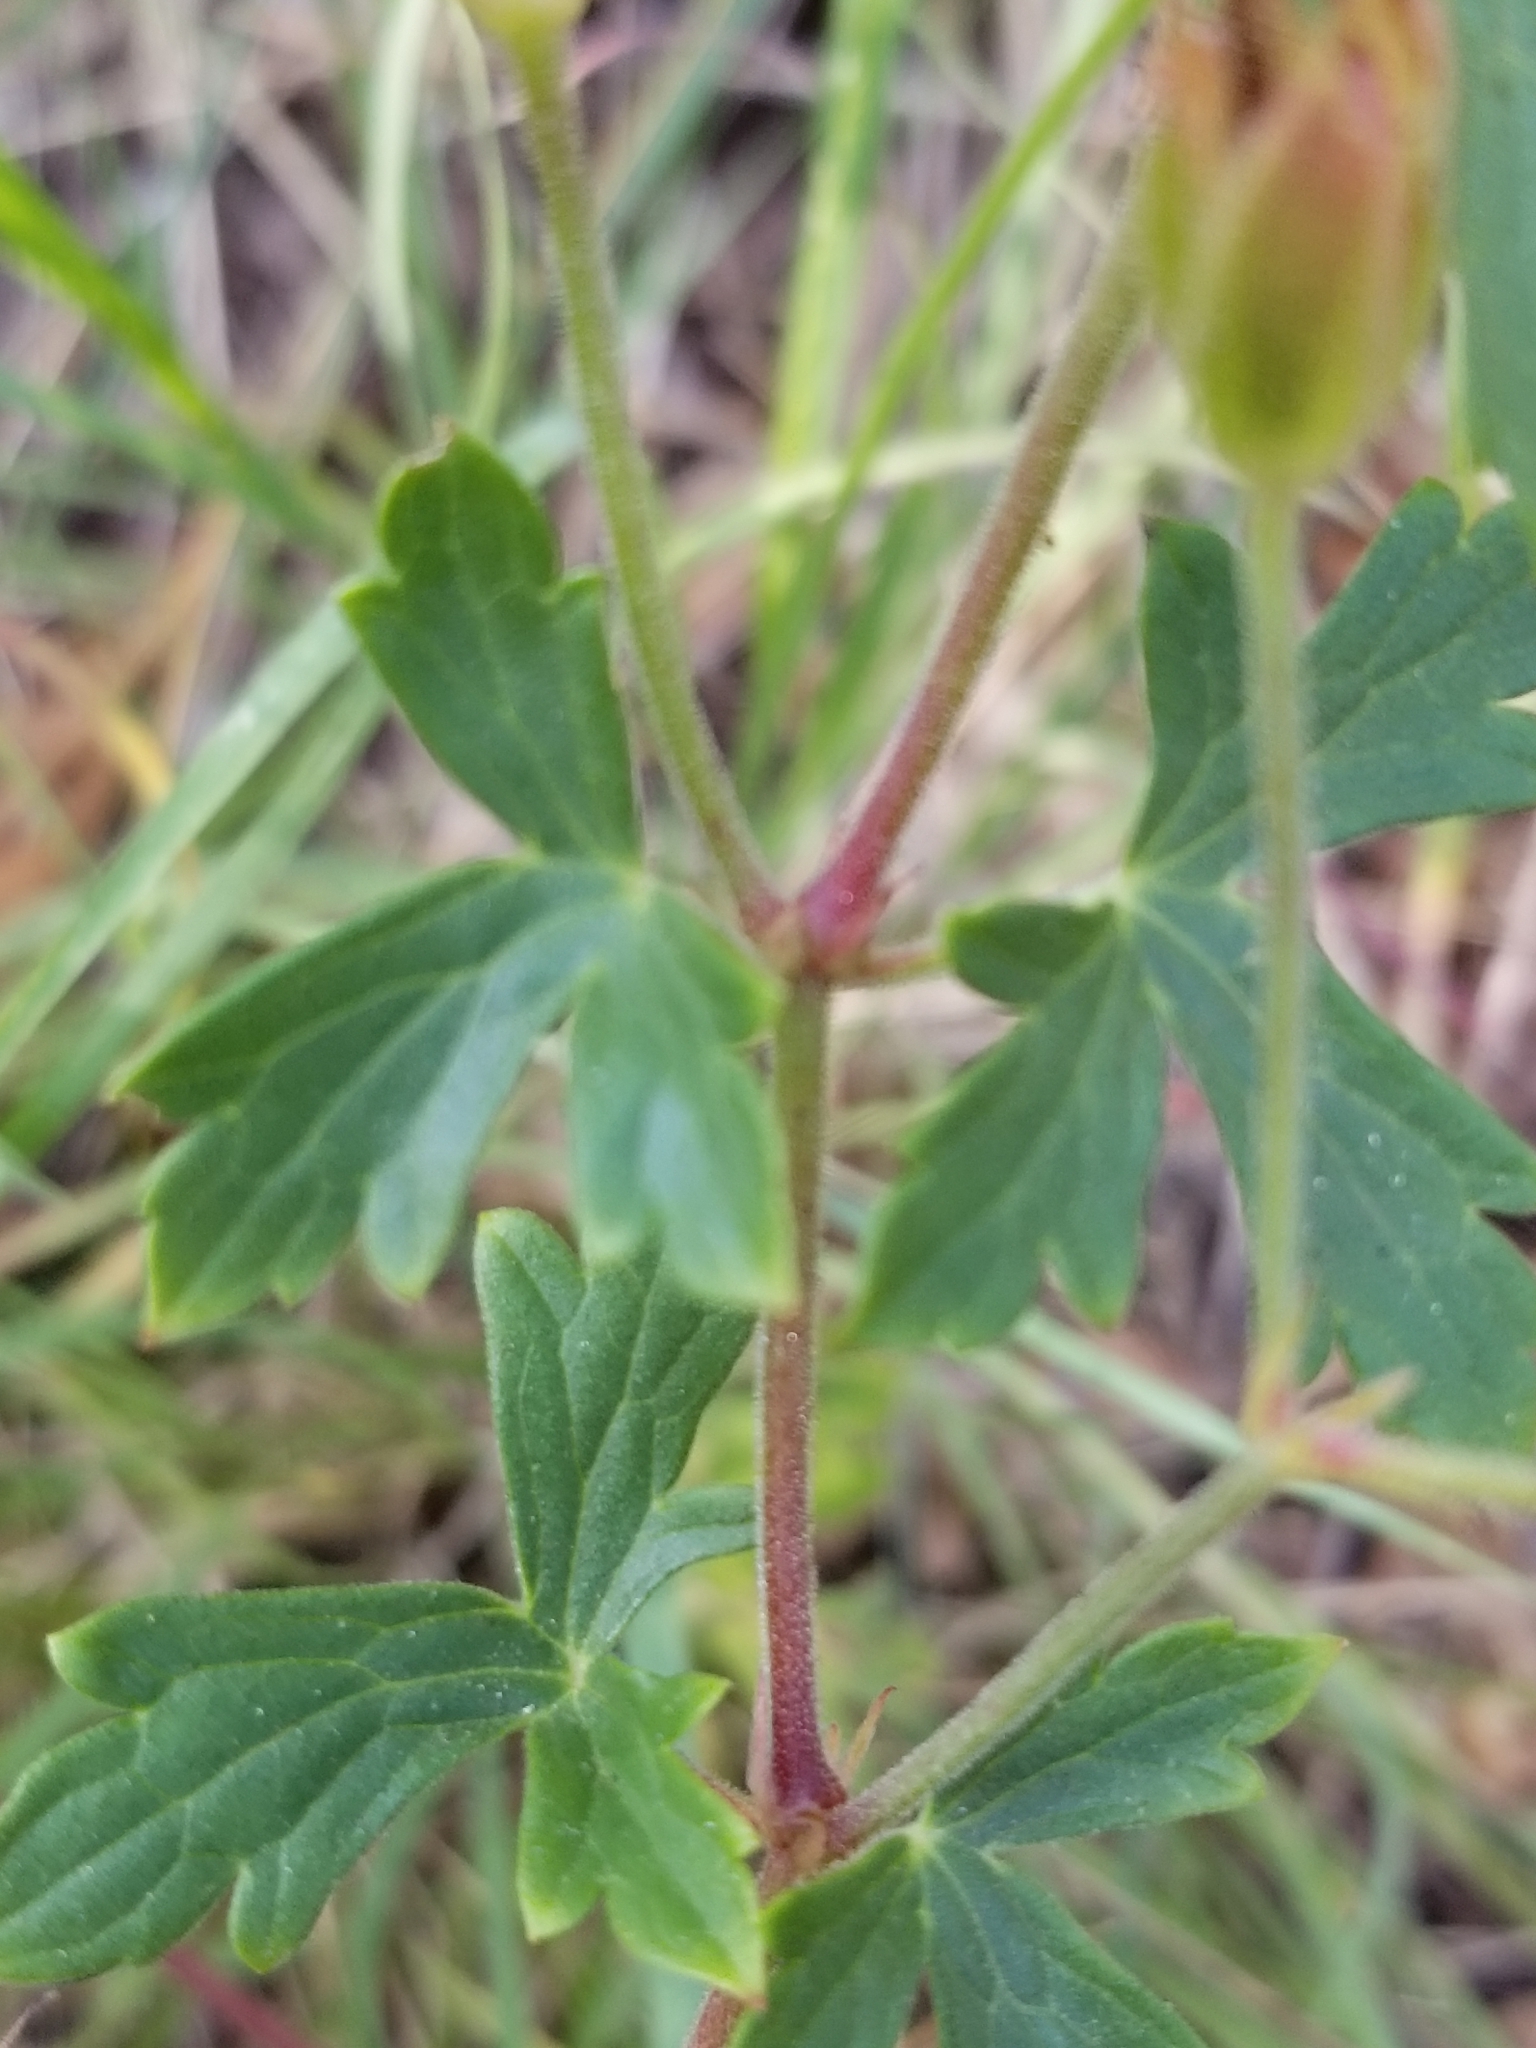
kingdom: Plantae
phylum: Tracheophyta
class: Magnoliopsida
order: Geraniales
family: Geraniaceae
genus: Geranium
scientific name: Geranium caespitosum
